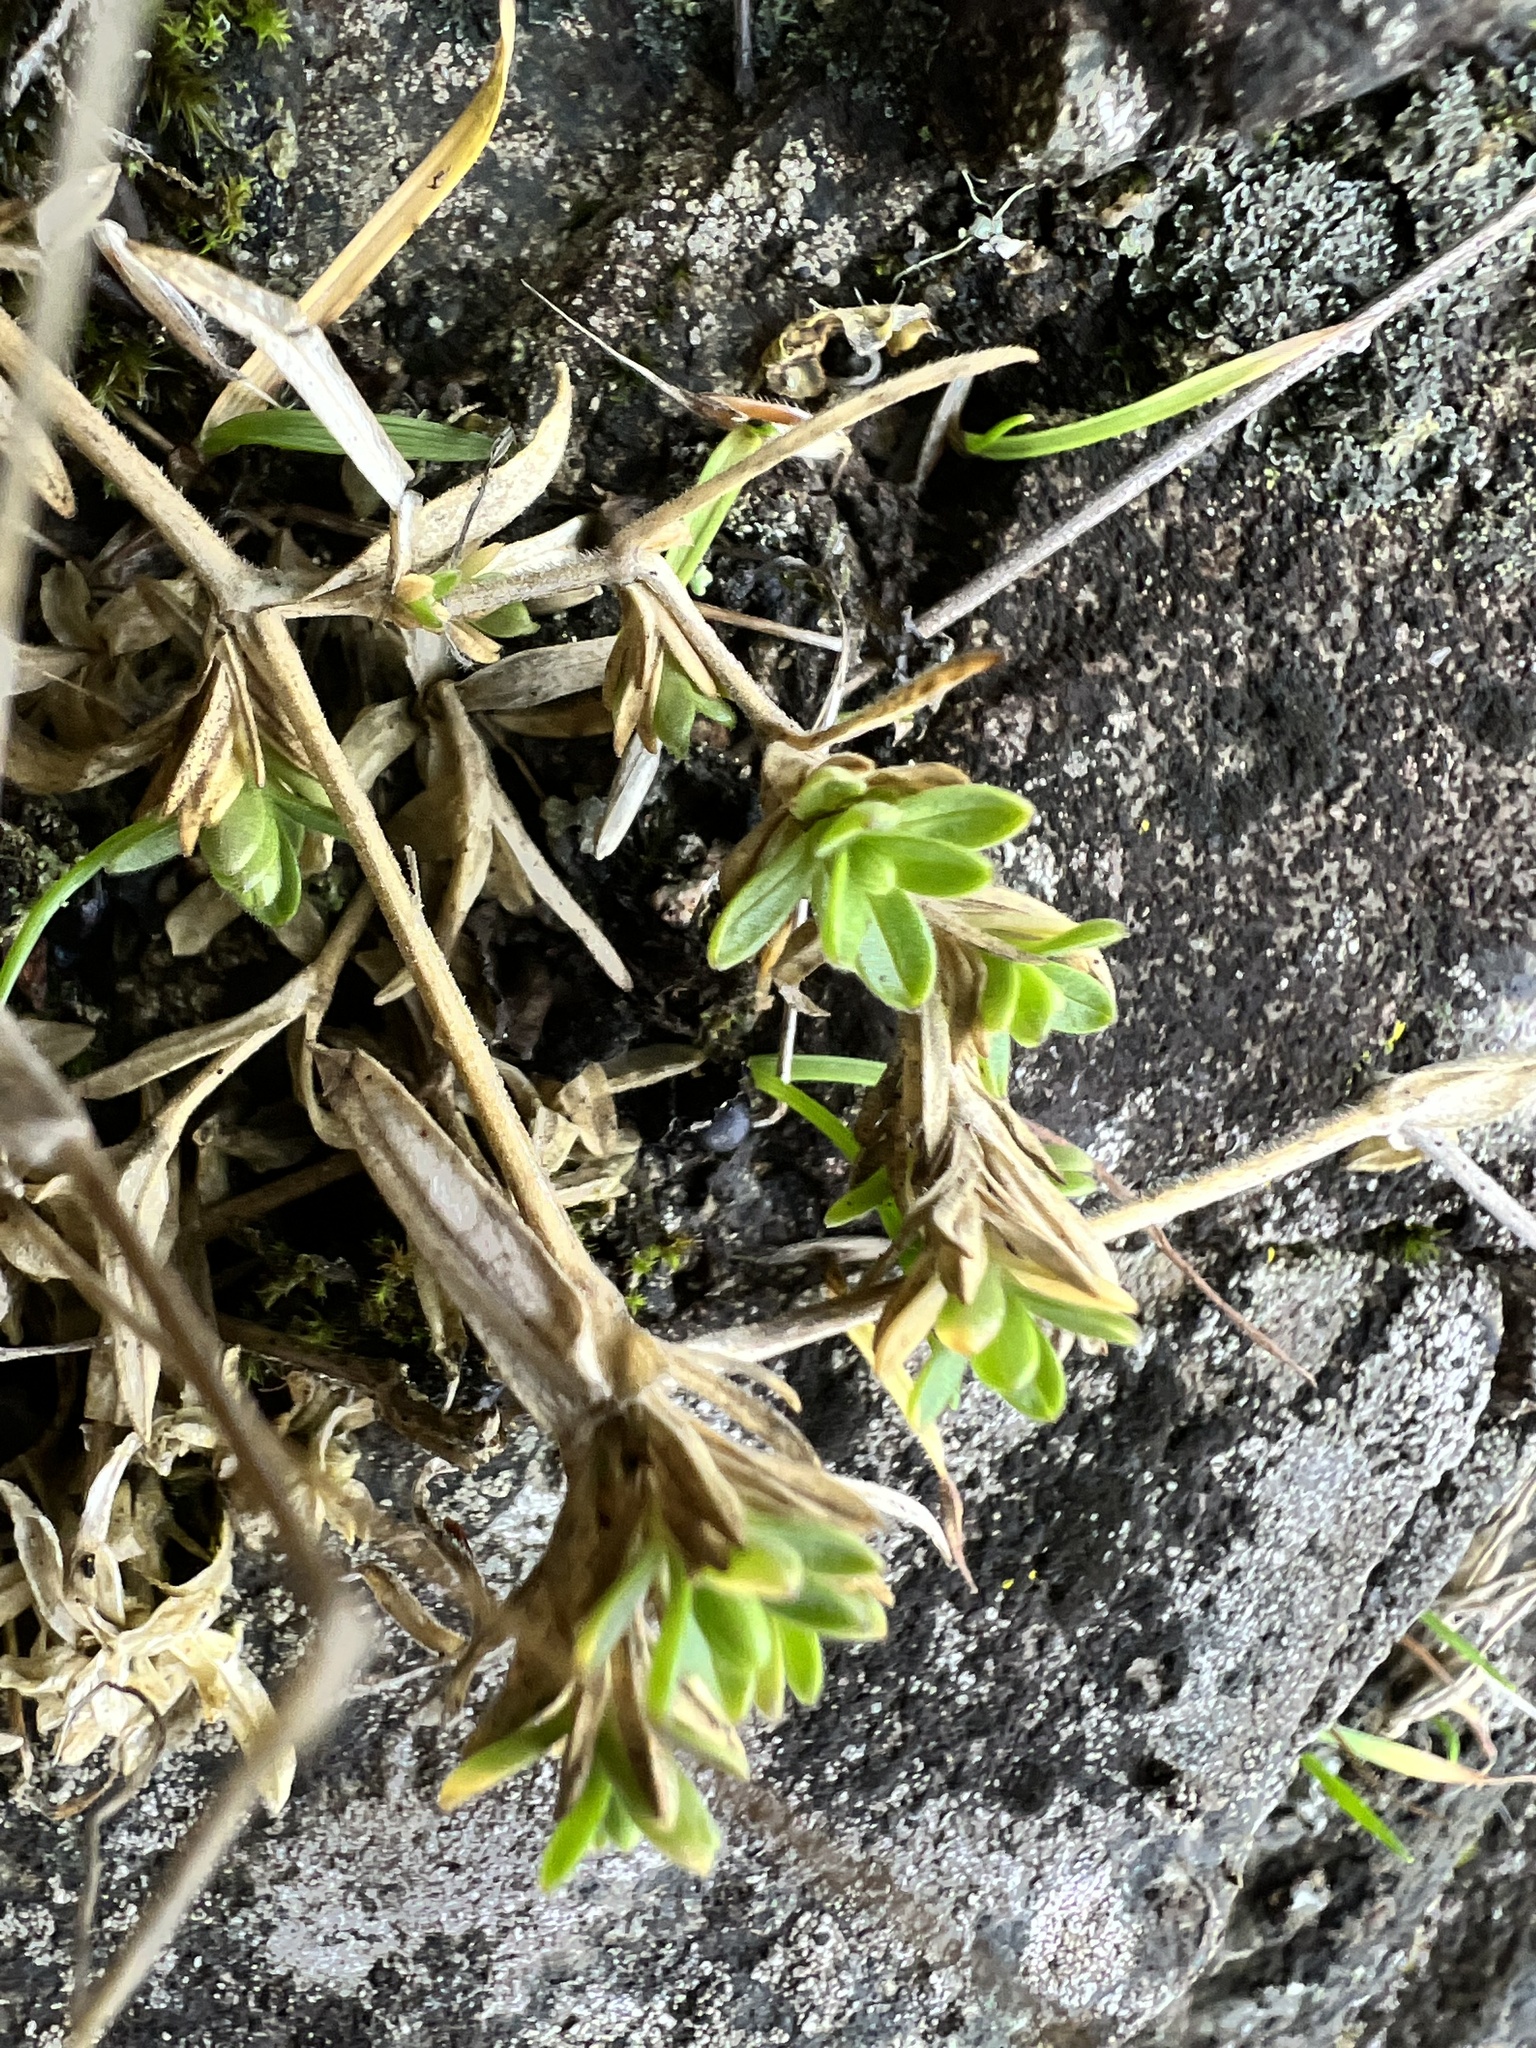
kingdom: Plantae
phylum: Tracheophyta
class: Magnoliopsida
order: Caryophyllales
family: Caryophyllaceae
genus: Cerastium
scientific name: Cerastium arvense
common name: Field mouse-ear
